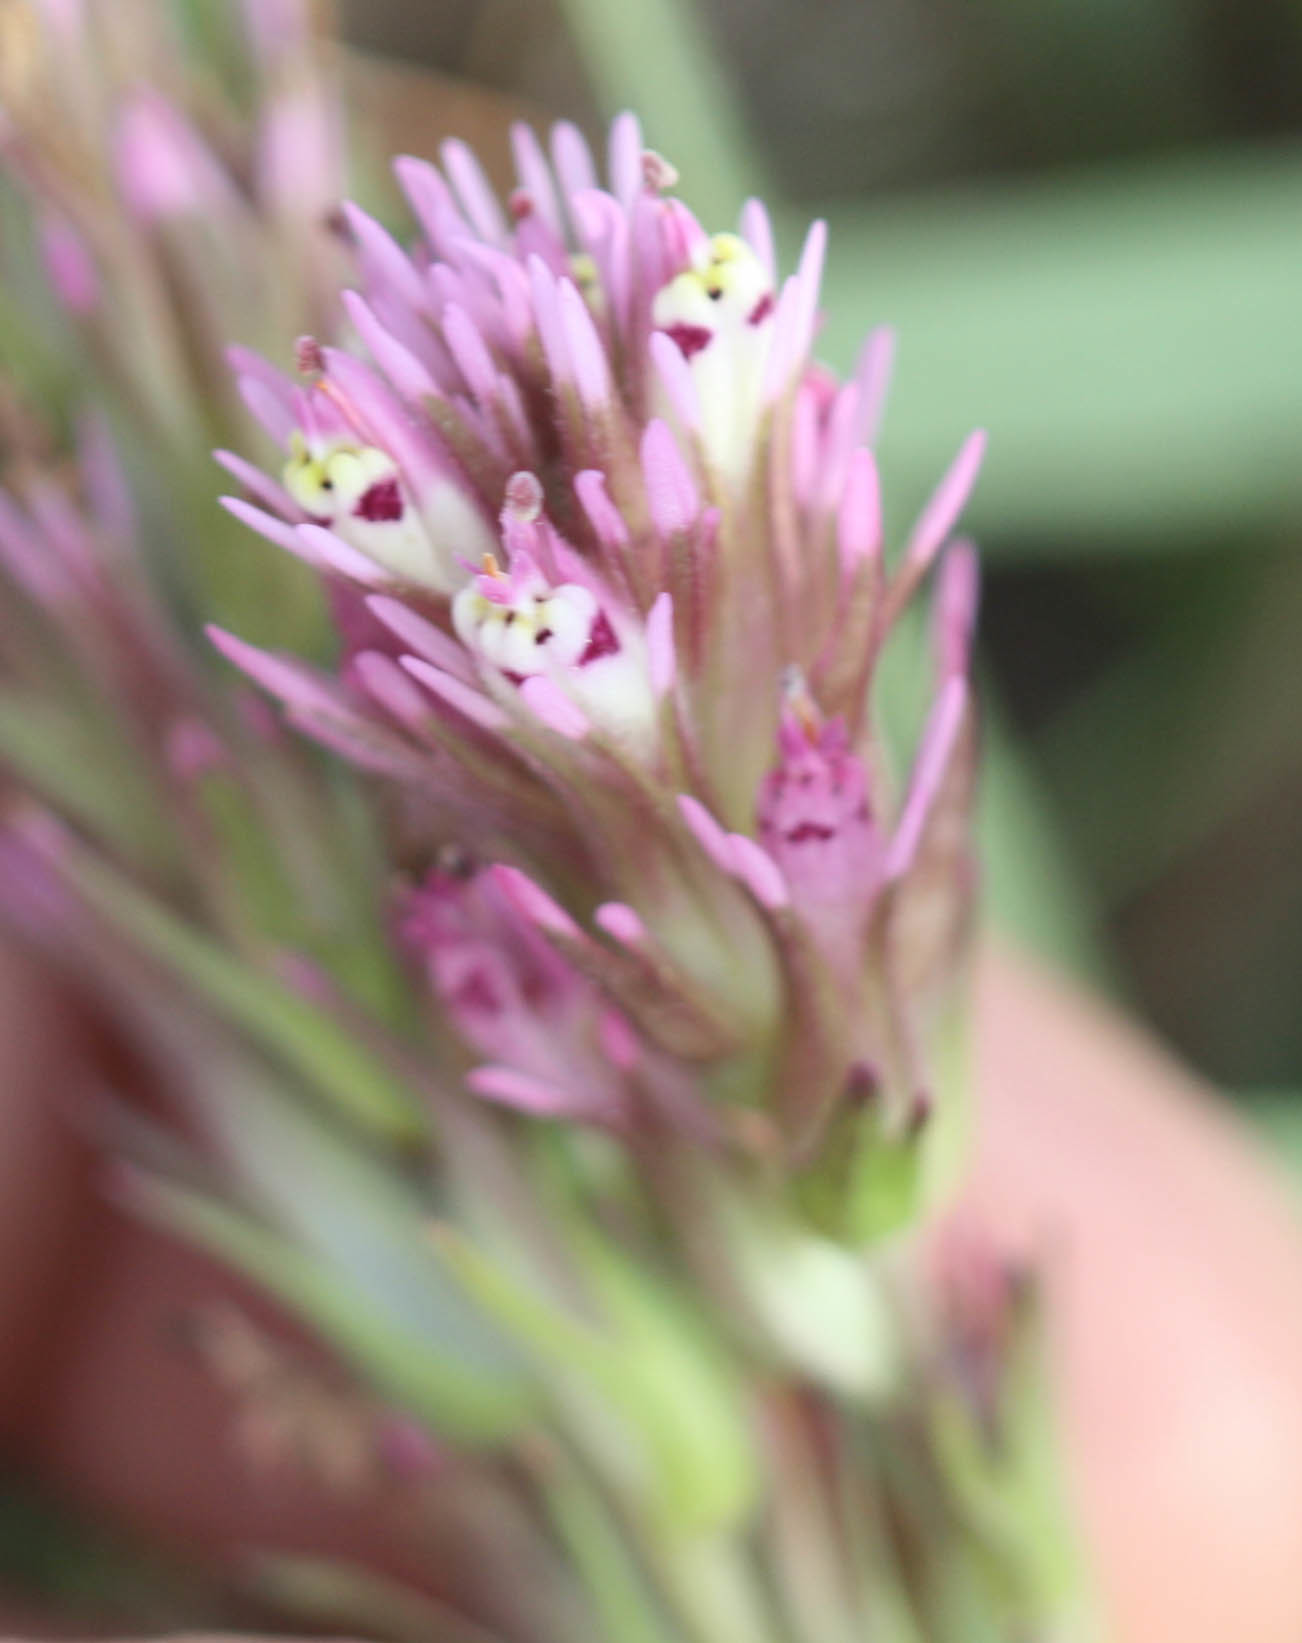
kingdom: Plantae
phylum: Tracheophyta
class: Magnoliopsida
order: Lamiales
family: Orobanchaceae
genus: Castilleja
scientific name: Castilleja densiflora
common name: Dense-flower indian paintbrush
